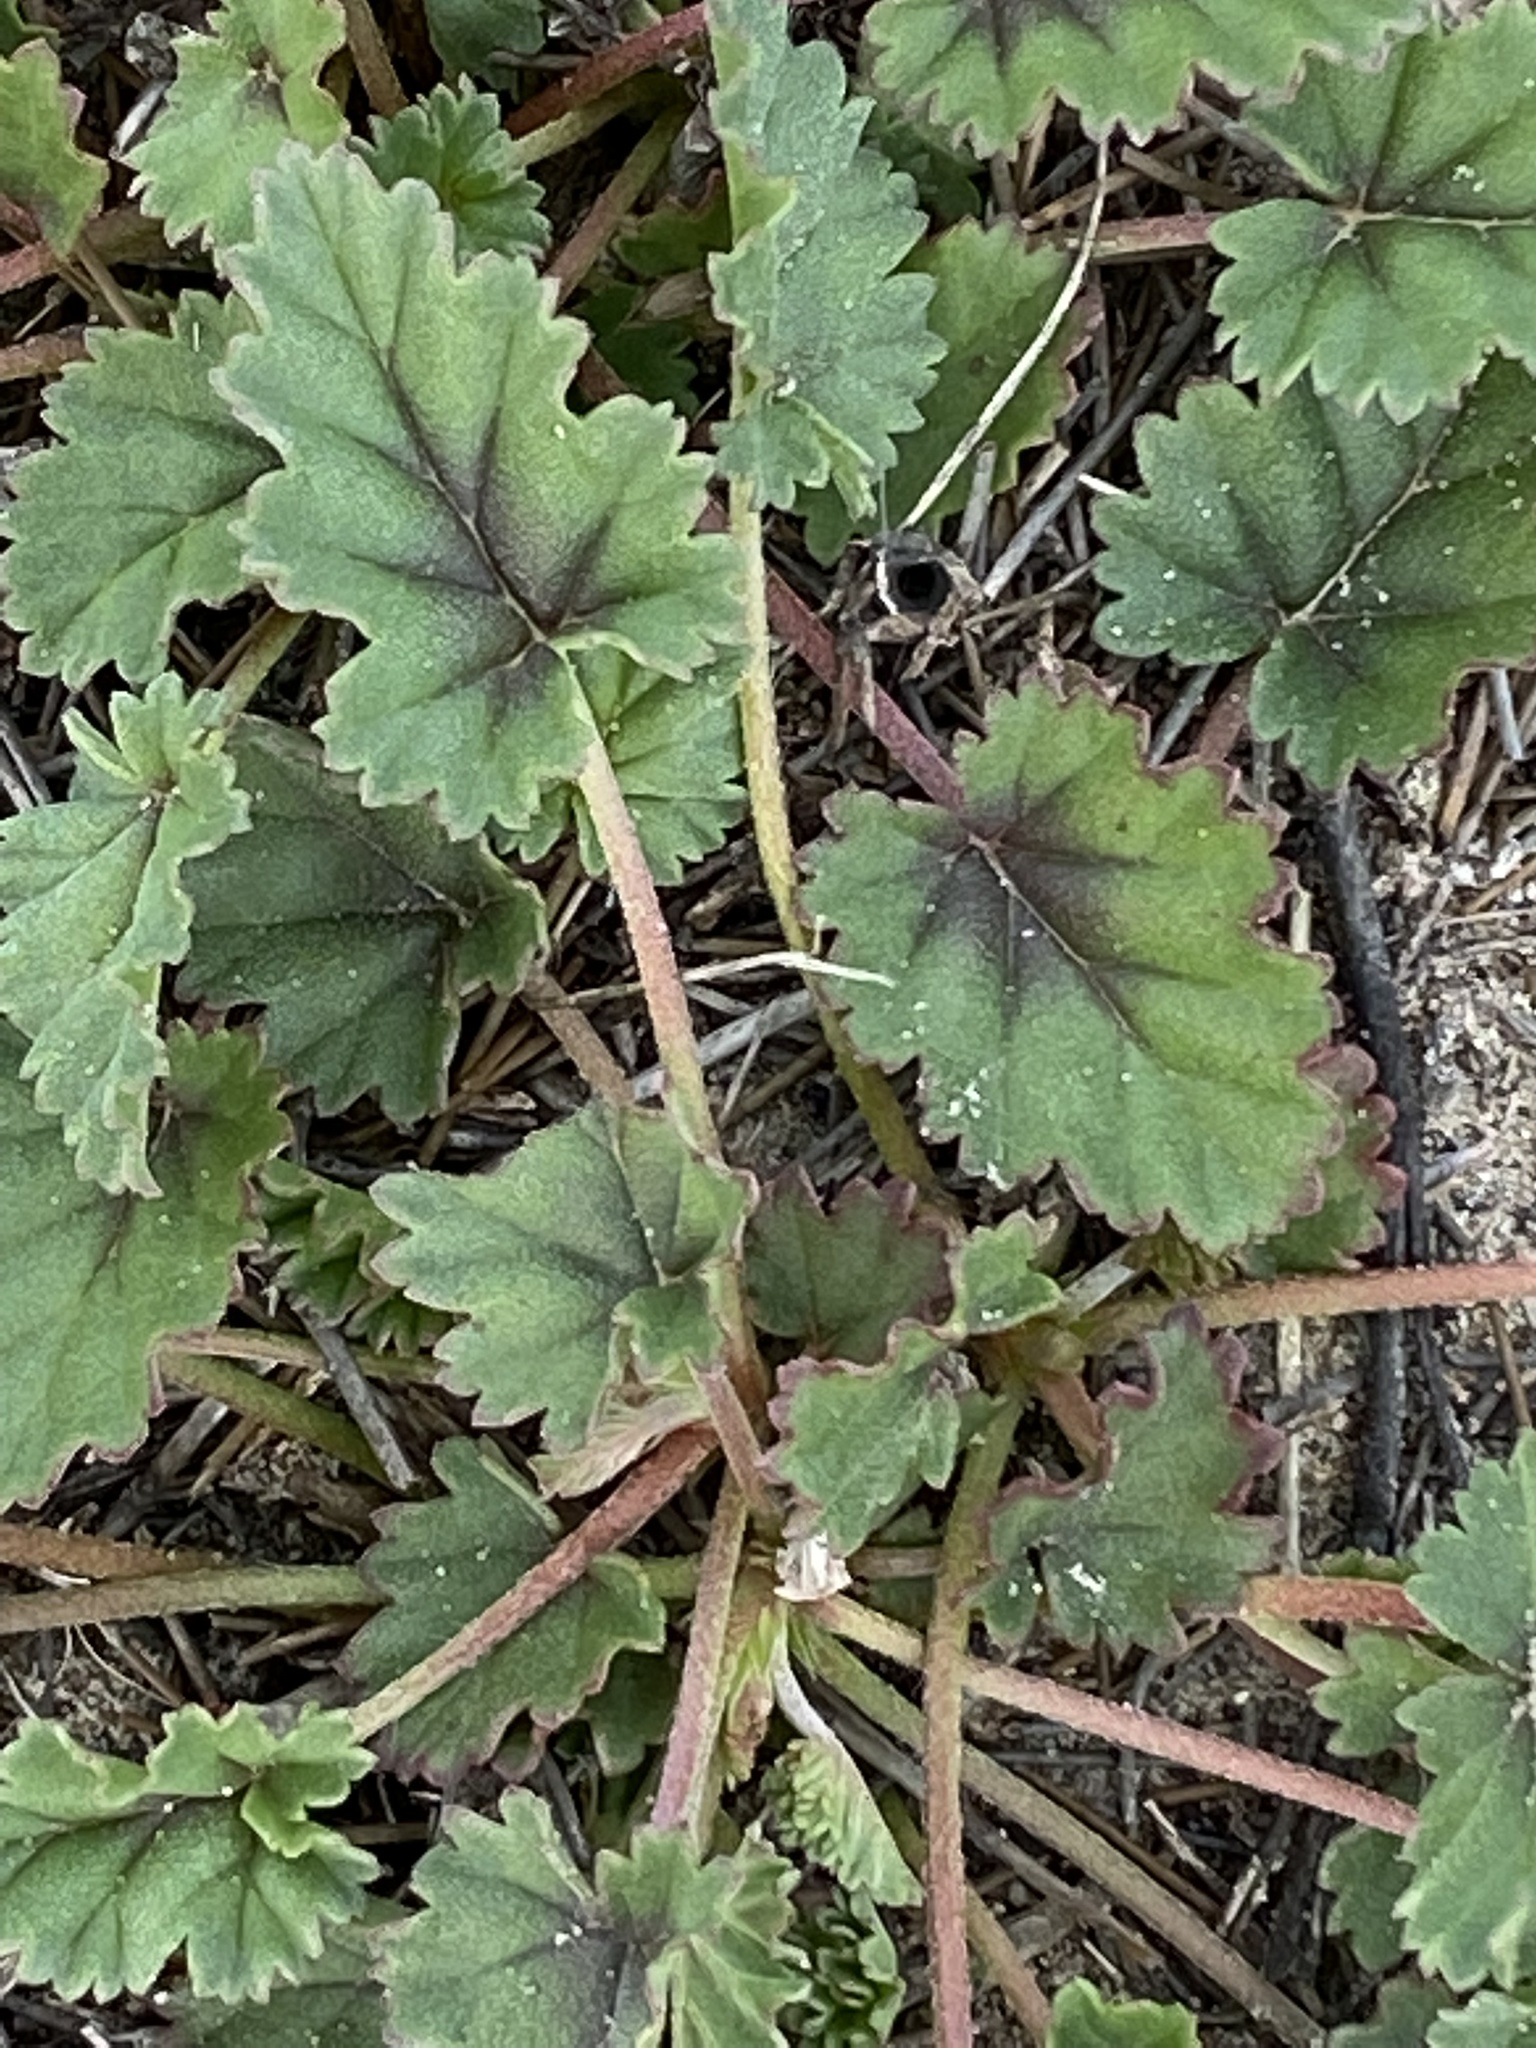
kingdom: Plantae
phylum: Tracheophyta
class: Magnoliopsida
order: Geraniales
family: Geraniaceae
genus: Pelargonium
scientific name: Pelargonium candicans
